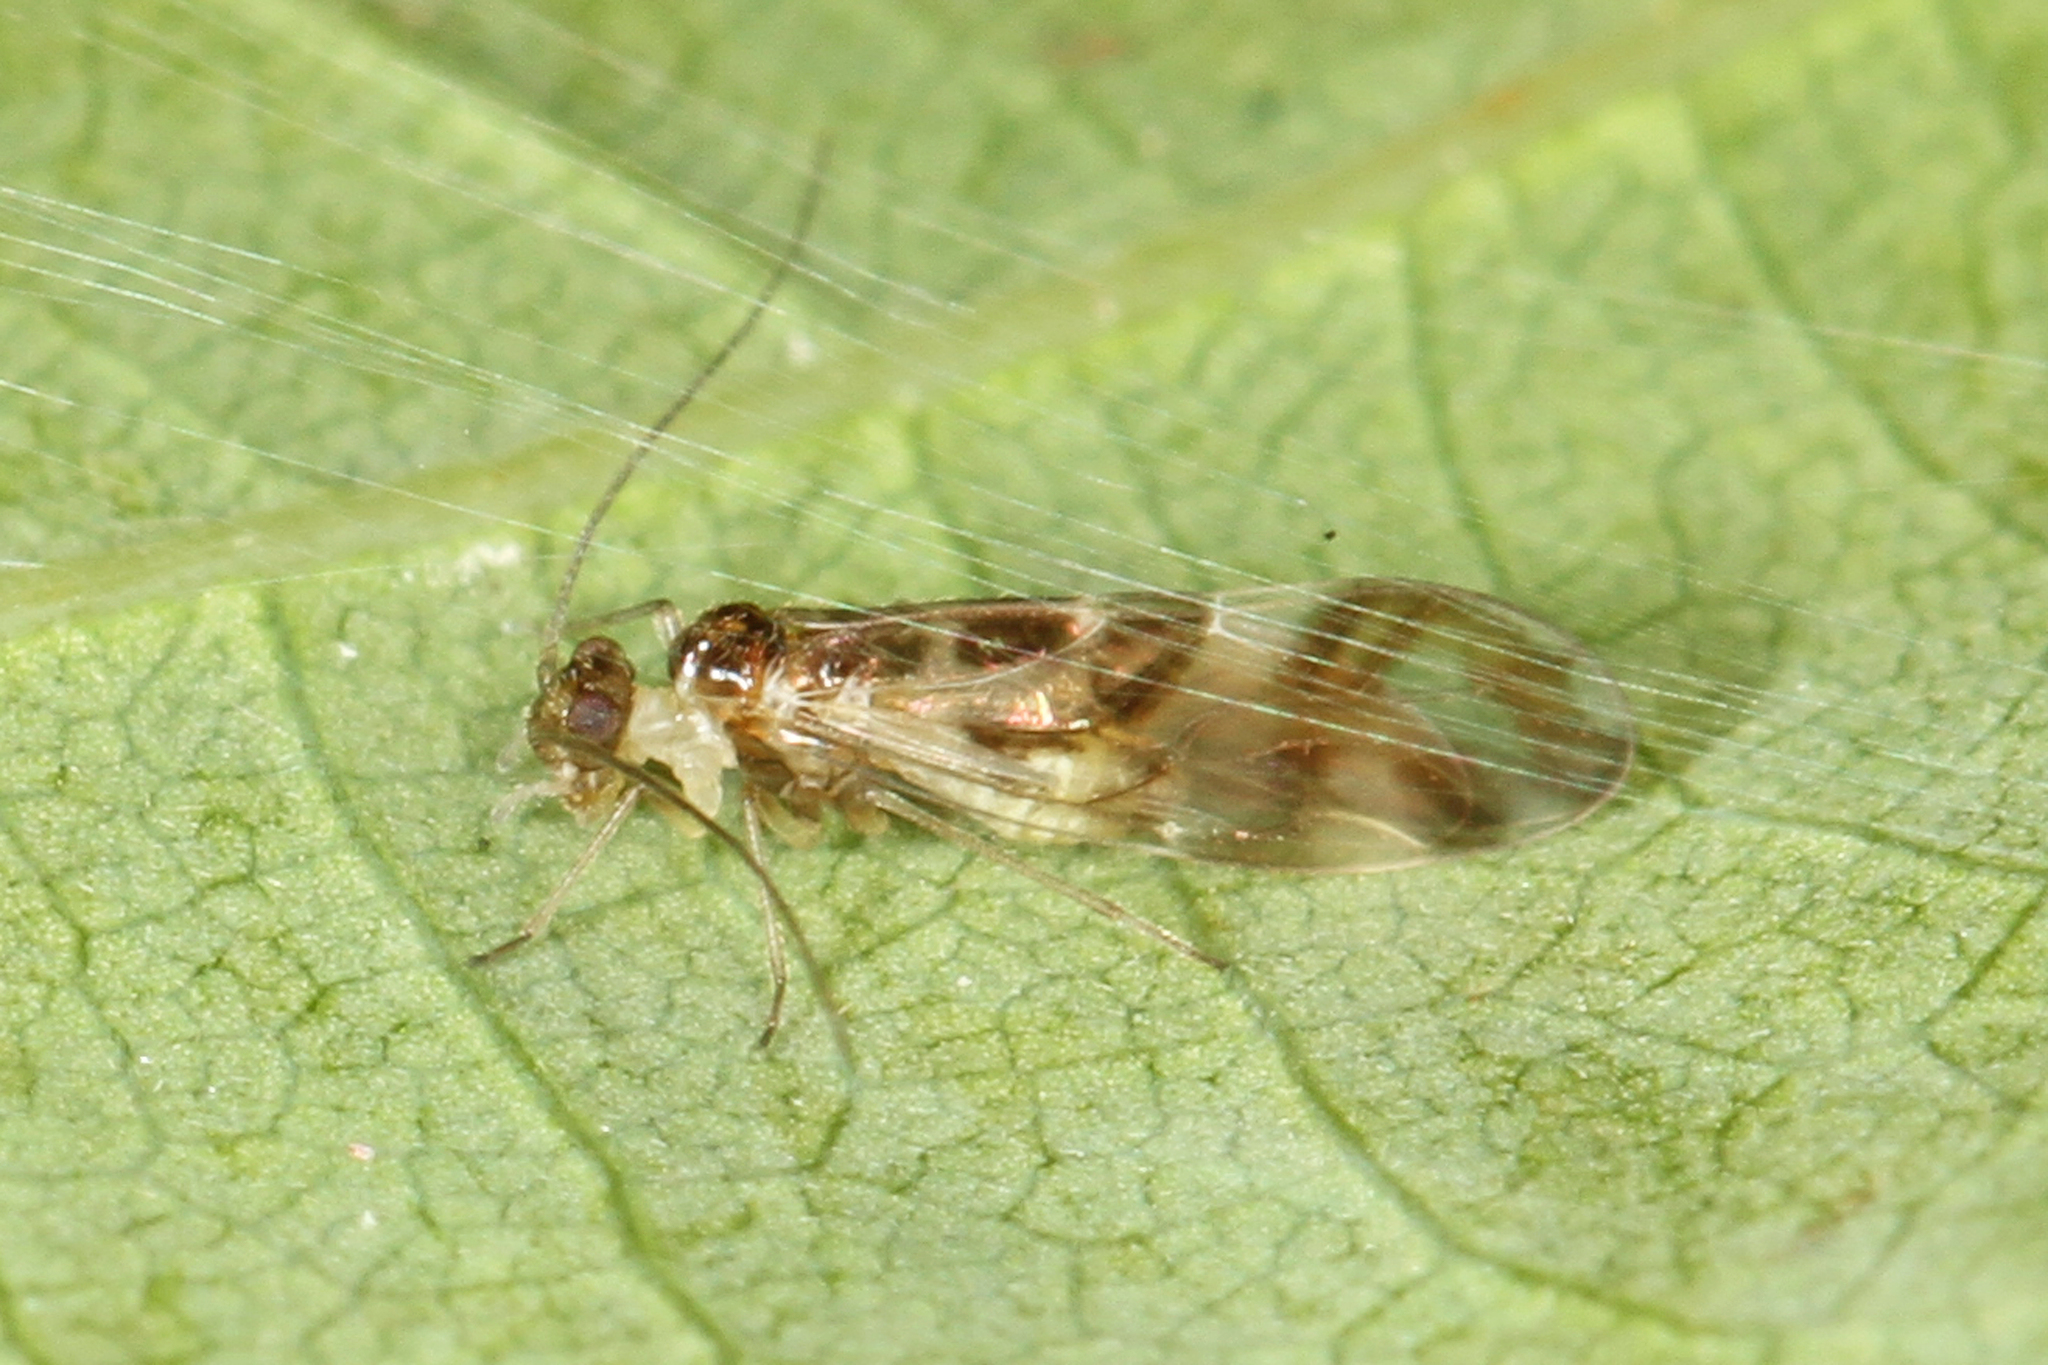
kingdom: Animalia
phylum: Arthropoda
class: Insecta
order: Psocodea
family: Stenopsocidae
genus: Graphopsocus
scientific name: Graphopsocus cruciatus
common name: Lizard bark louse
